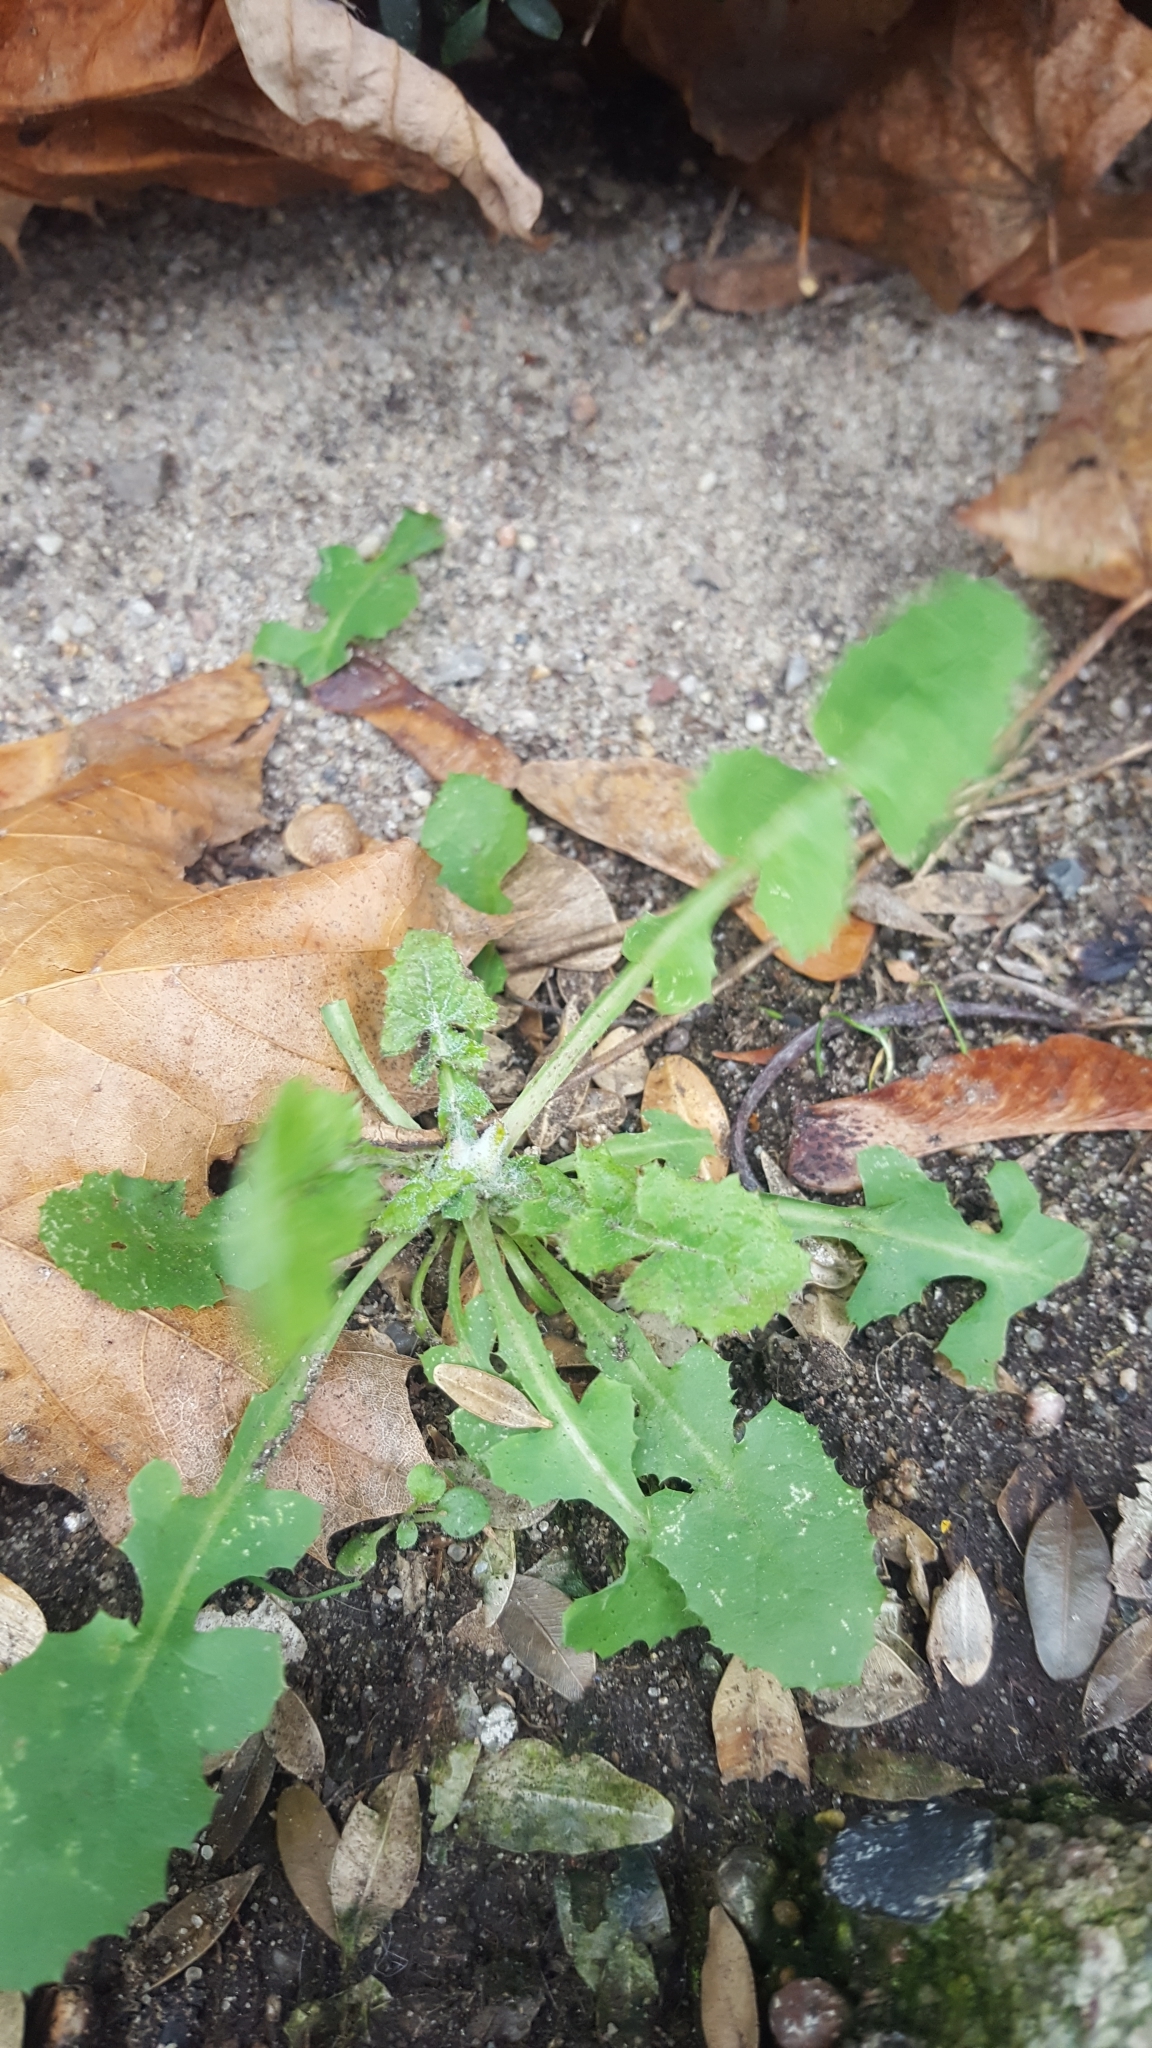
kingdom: Plantae
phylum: Tracheophyta
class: Magnoliopsida
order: Asterales
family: Asteraceae
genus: Sonchus
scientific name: Sonchus oleraceus
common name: Common sowthistle
